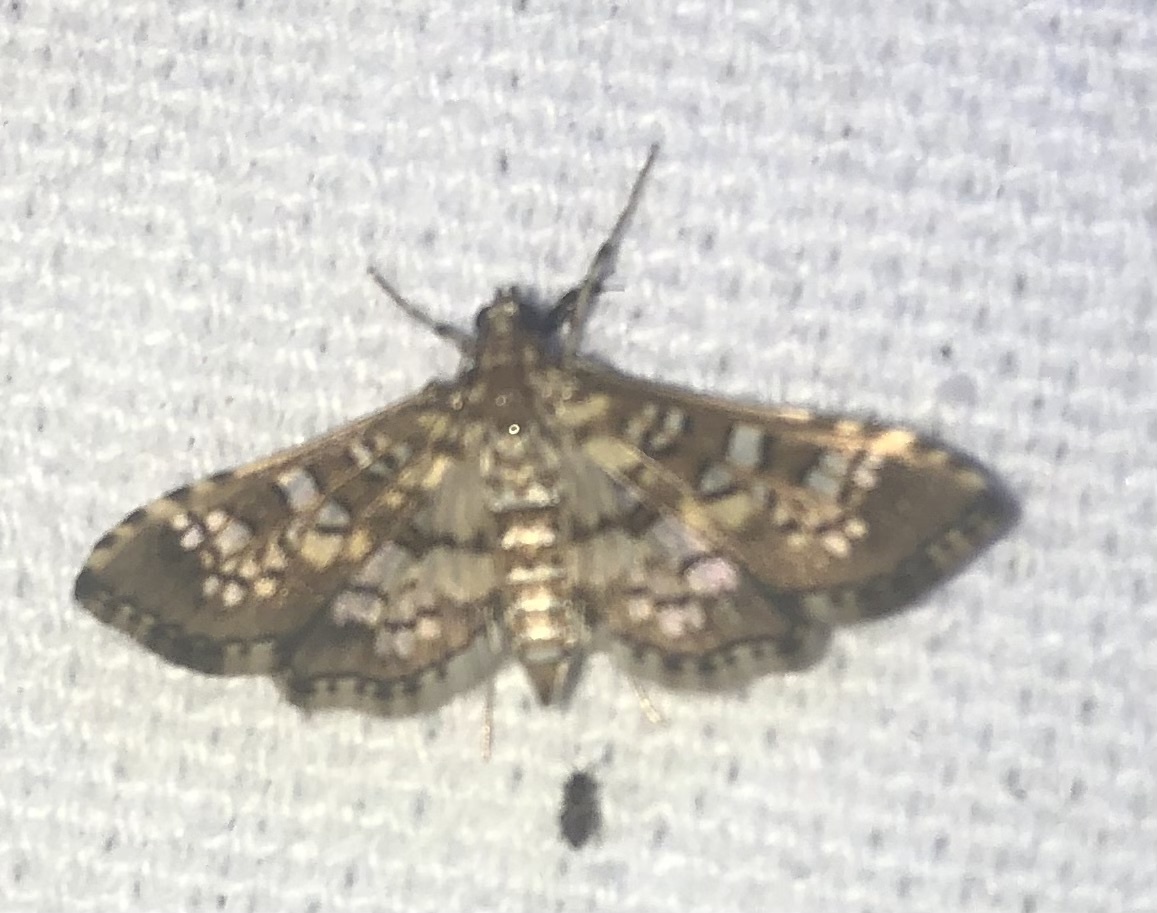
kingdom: Animalia
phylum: Arthropoda
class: Insecta
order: Lepidoptera
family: Crambidae
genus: Samea
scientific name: Samea ecclesialis
